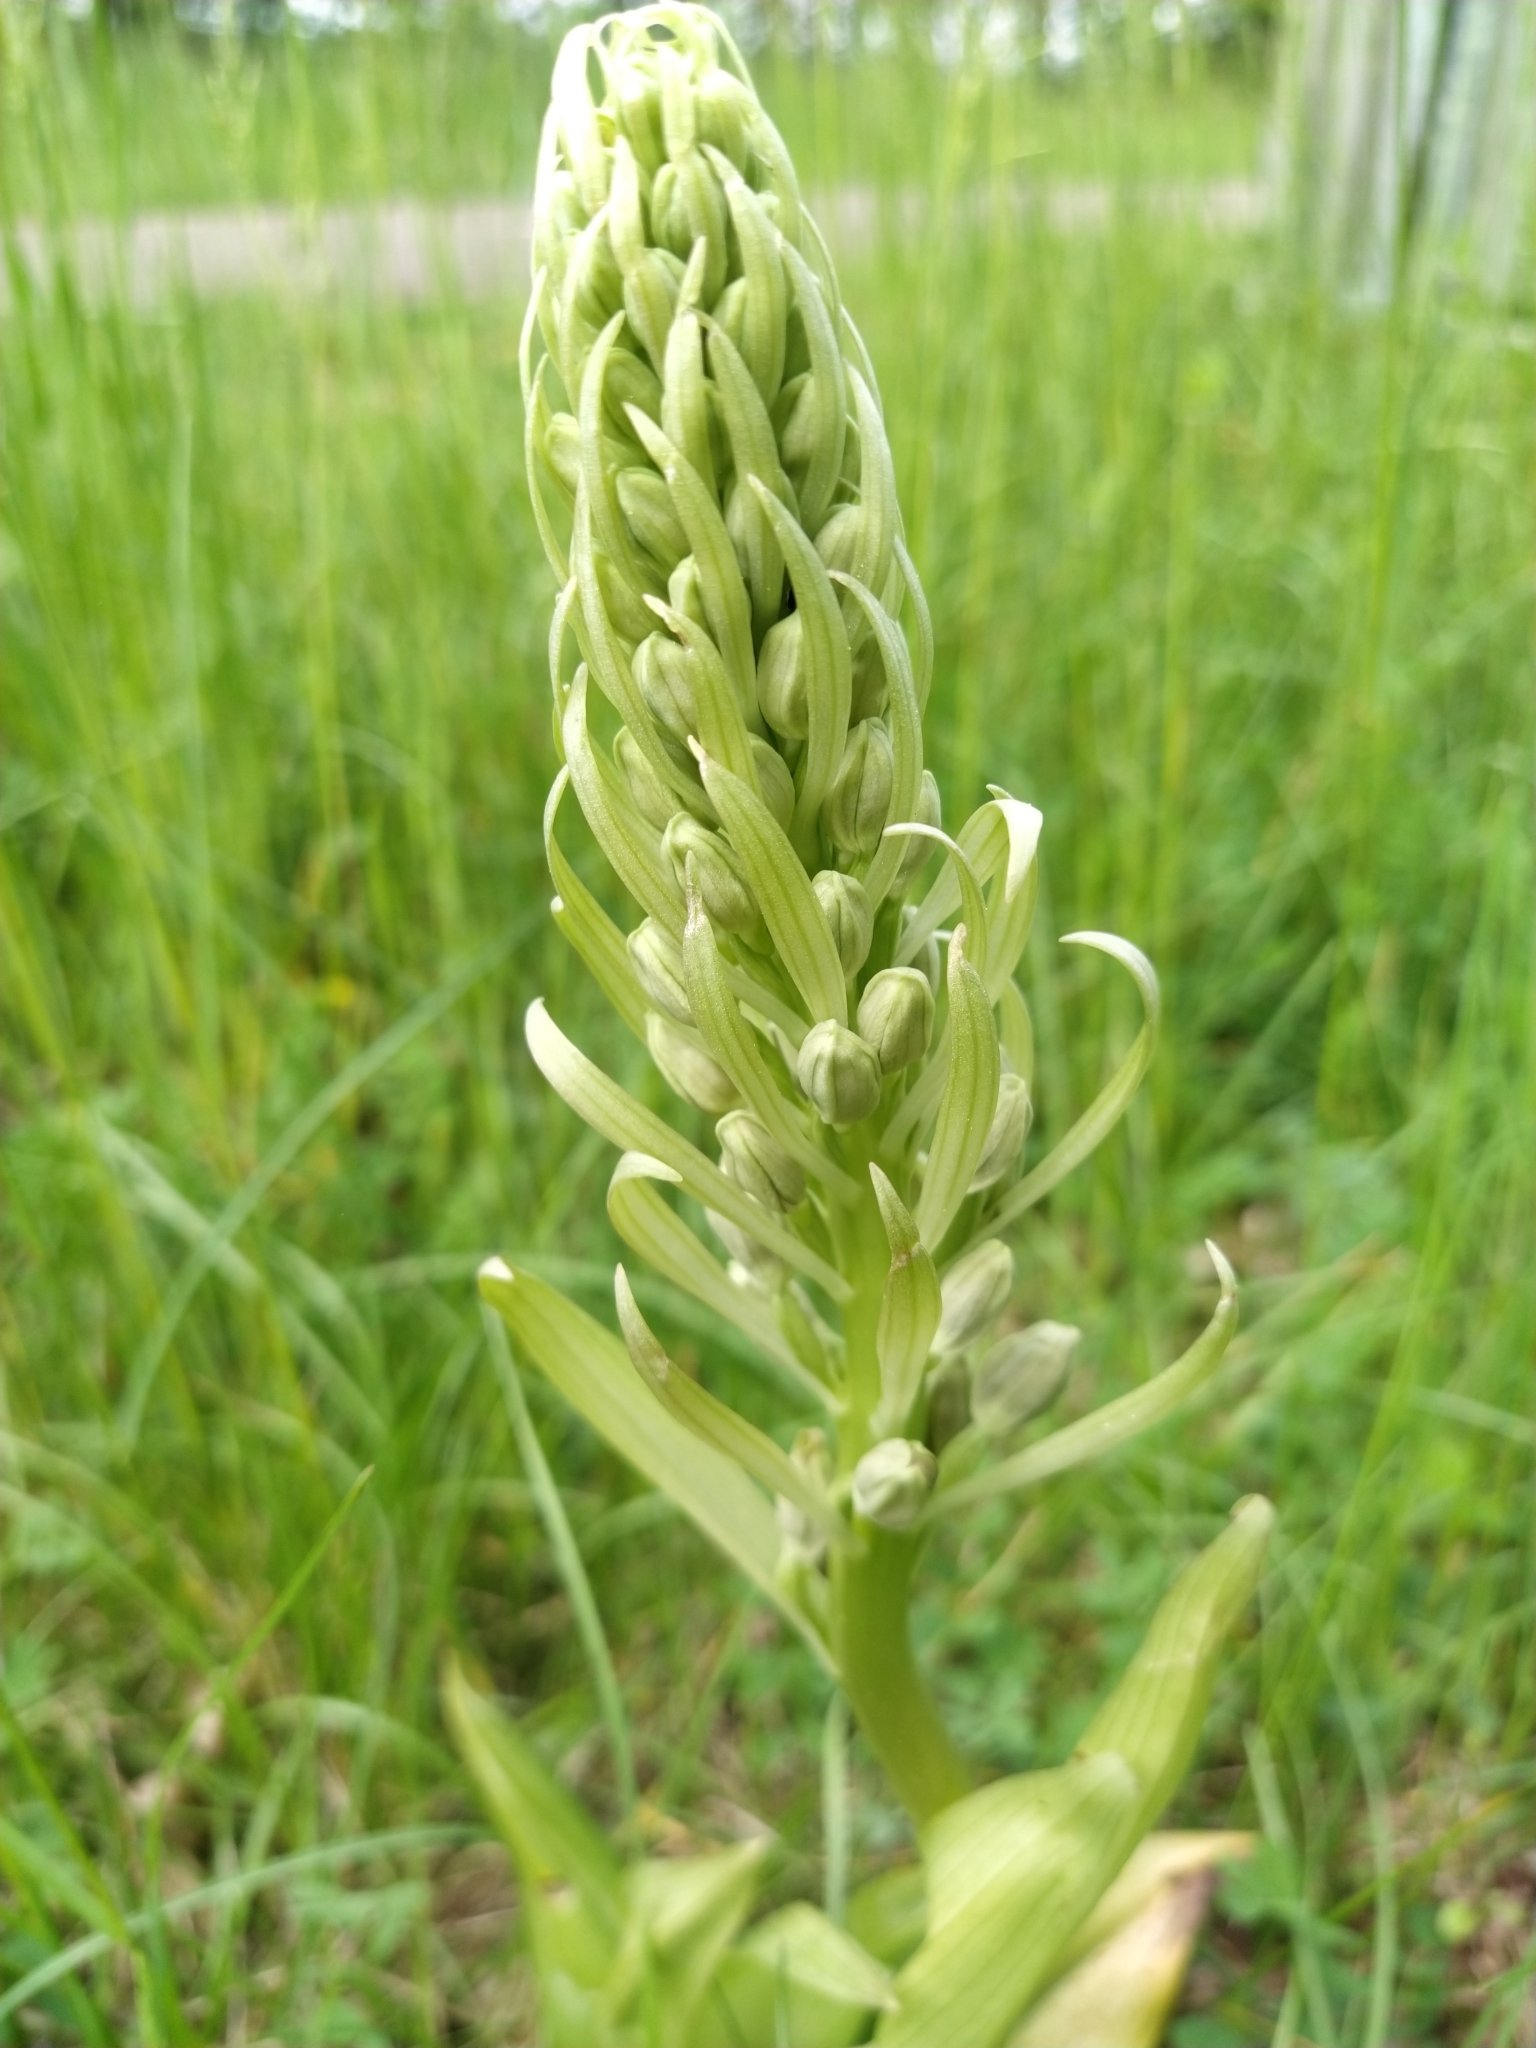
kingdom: Plantae
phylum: Tracheophyta
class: Liliopsida
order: Asparagales
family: Orchidaceae
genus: Himantoglossum
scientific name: Himantoglossum hircinum
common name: Lizard orchid
